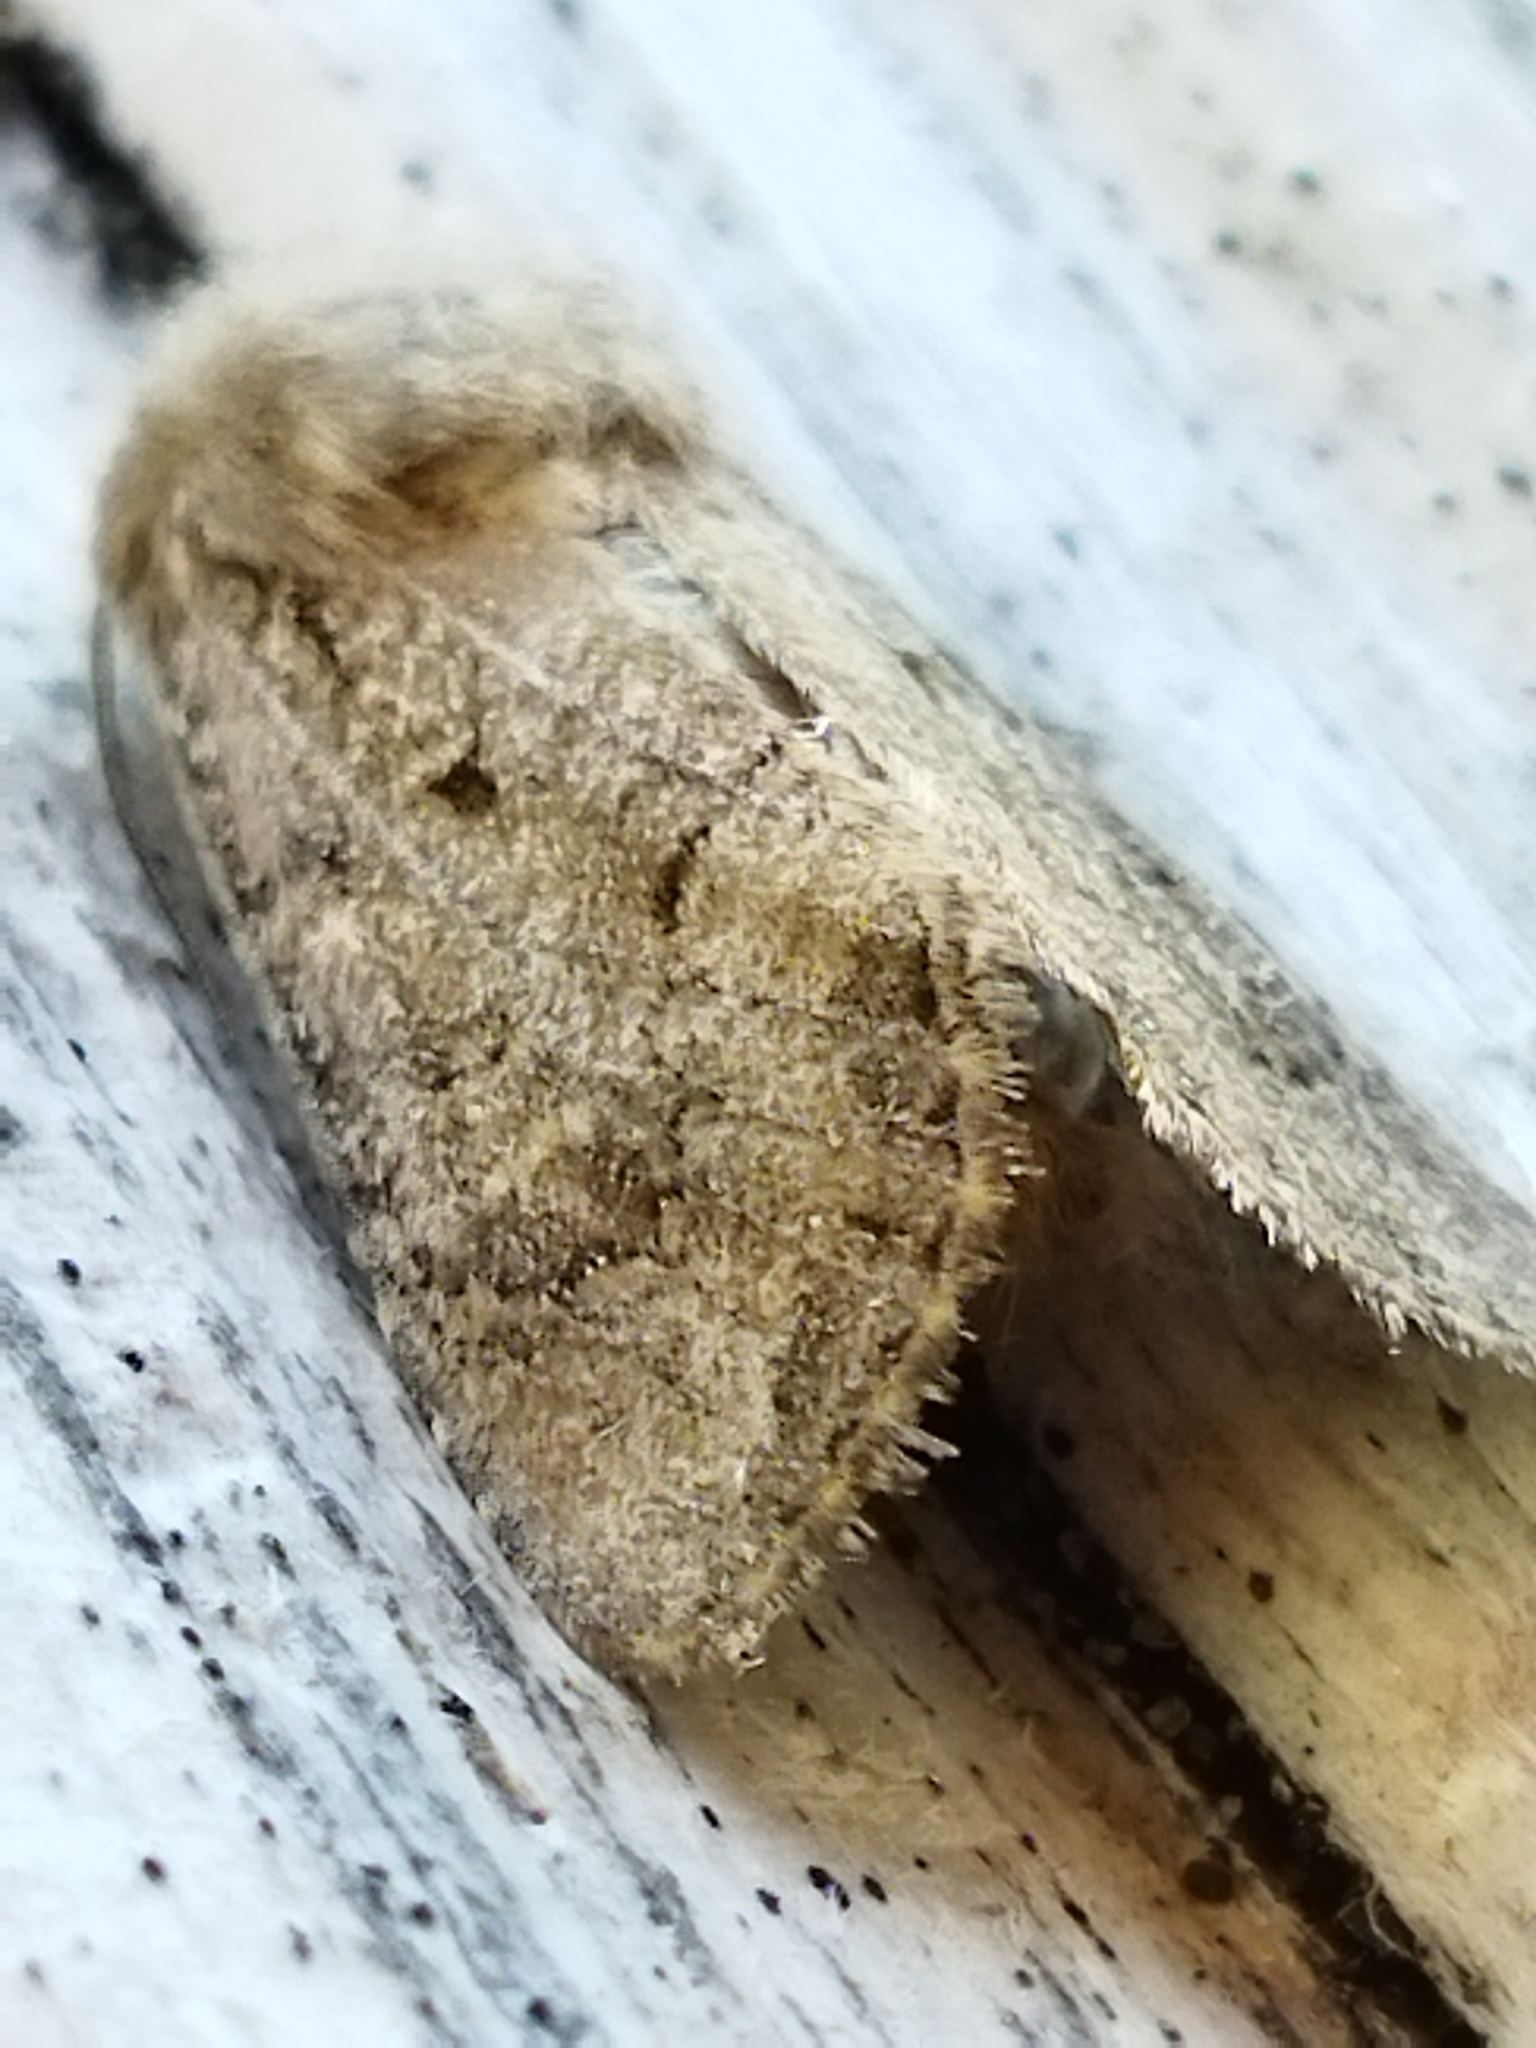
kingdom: Animalia
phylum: Arthropoda
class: Insecta
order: Lepidoptera
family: Noctuidae
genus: Luperina
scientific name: Luperina testacea
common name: Flounced rustic
